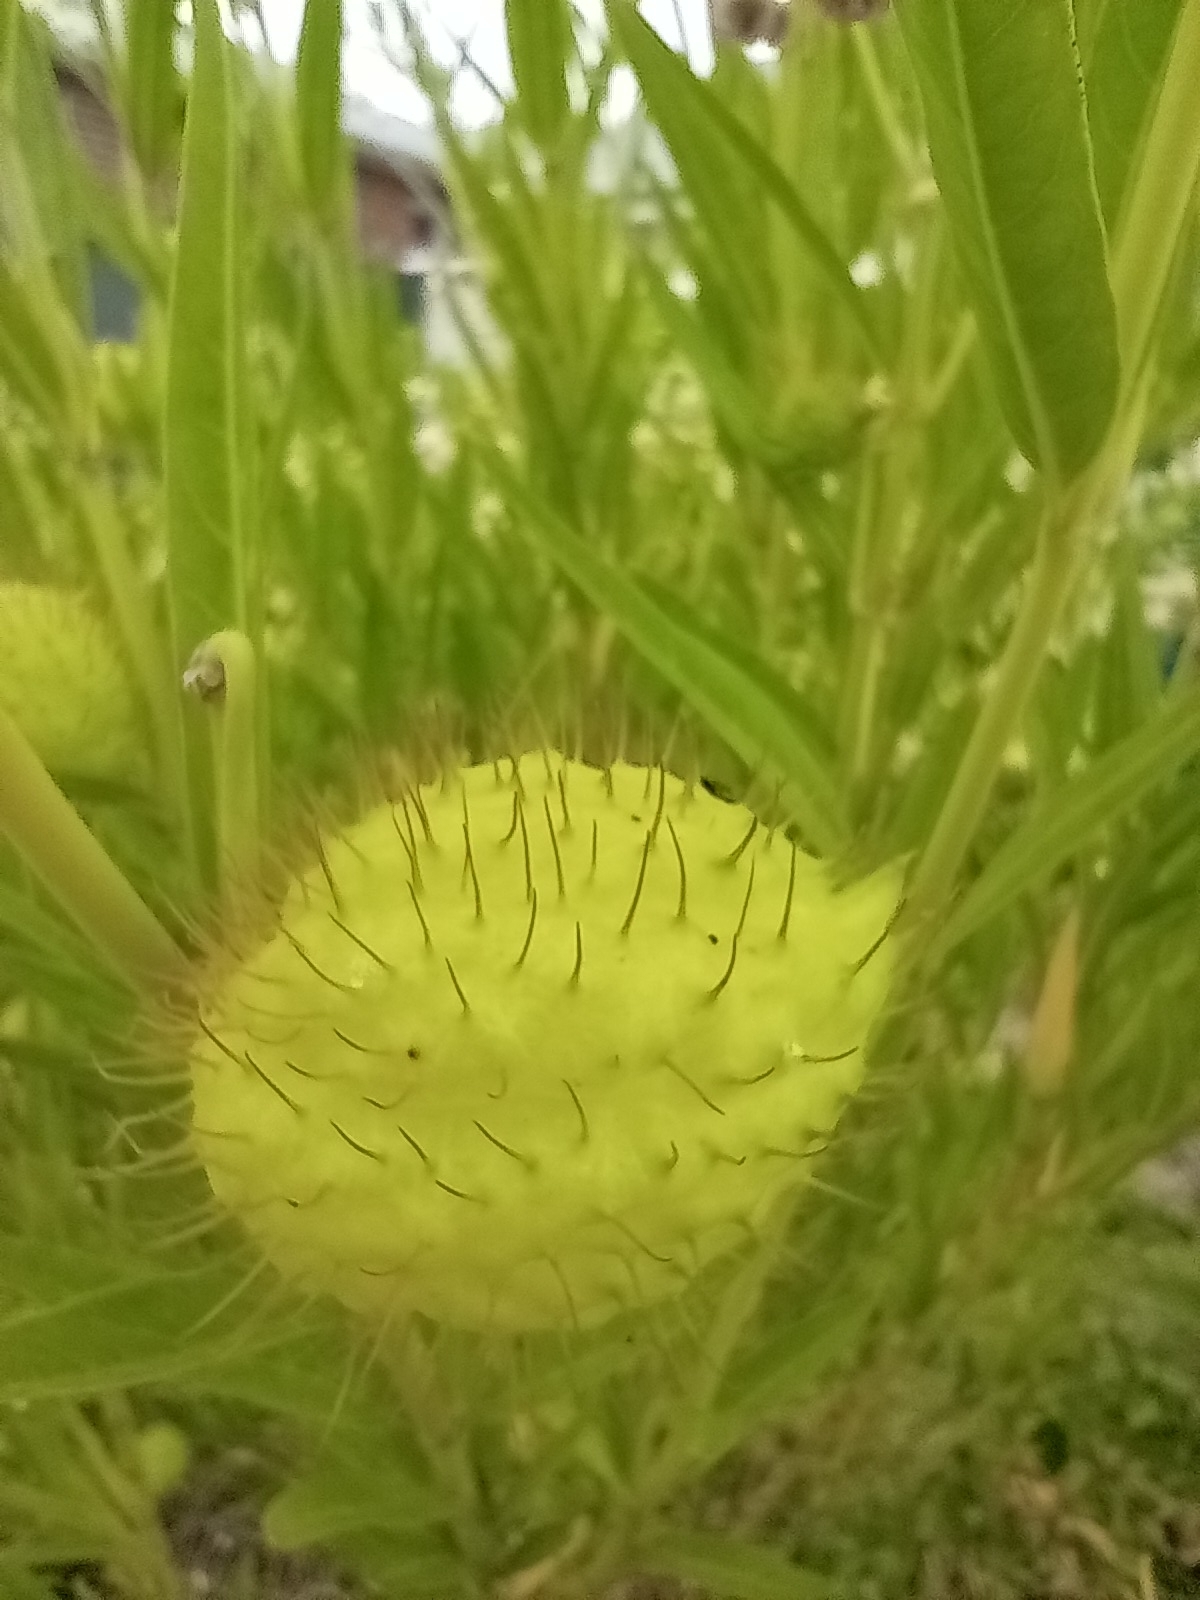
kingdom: Plantae
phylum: Tracheophyta
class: Magnoliopsida
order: Gentianales
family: Apocynaceae
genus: Gomphocarpus
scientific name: Gomphocarpus physocarpus
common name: Balloon cotton bush
